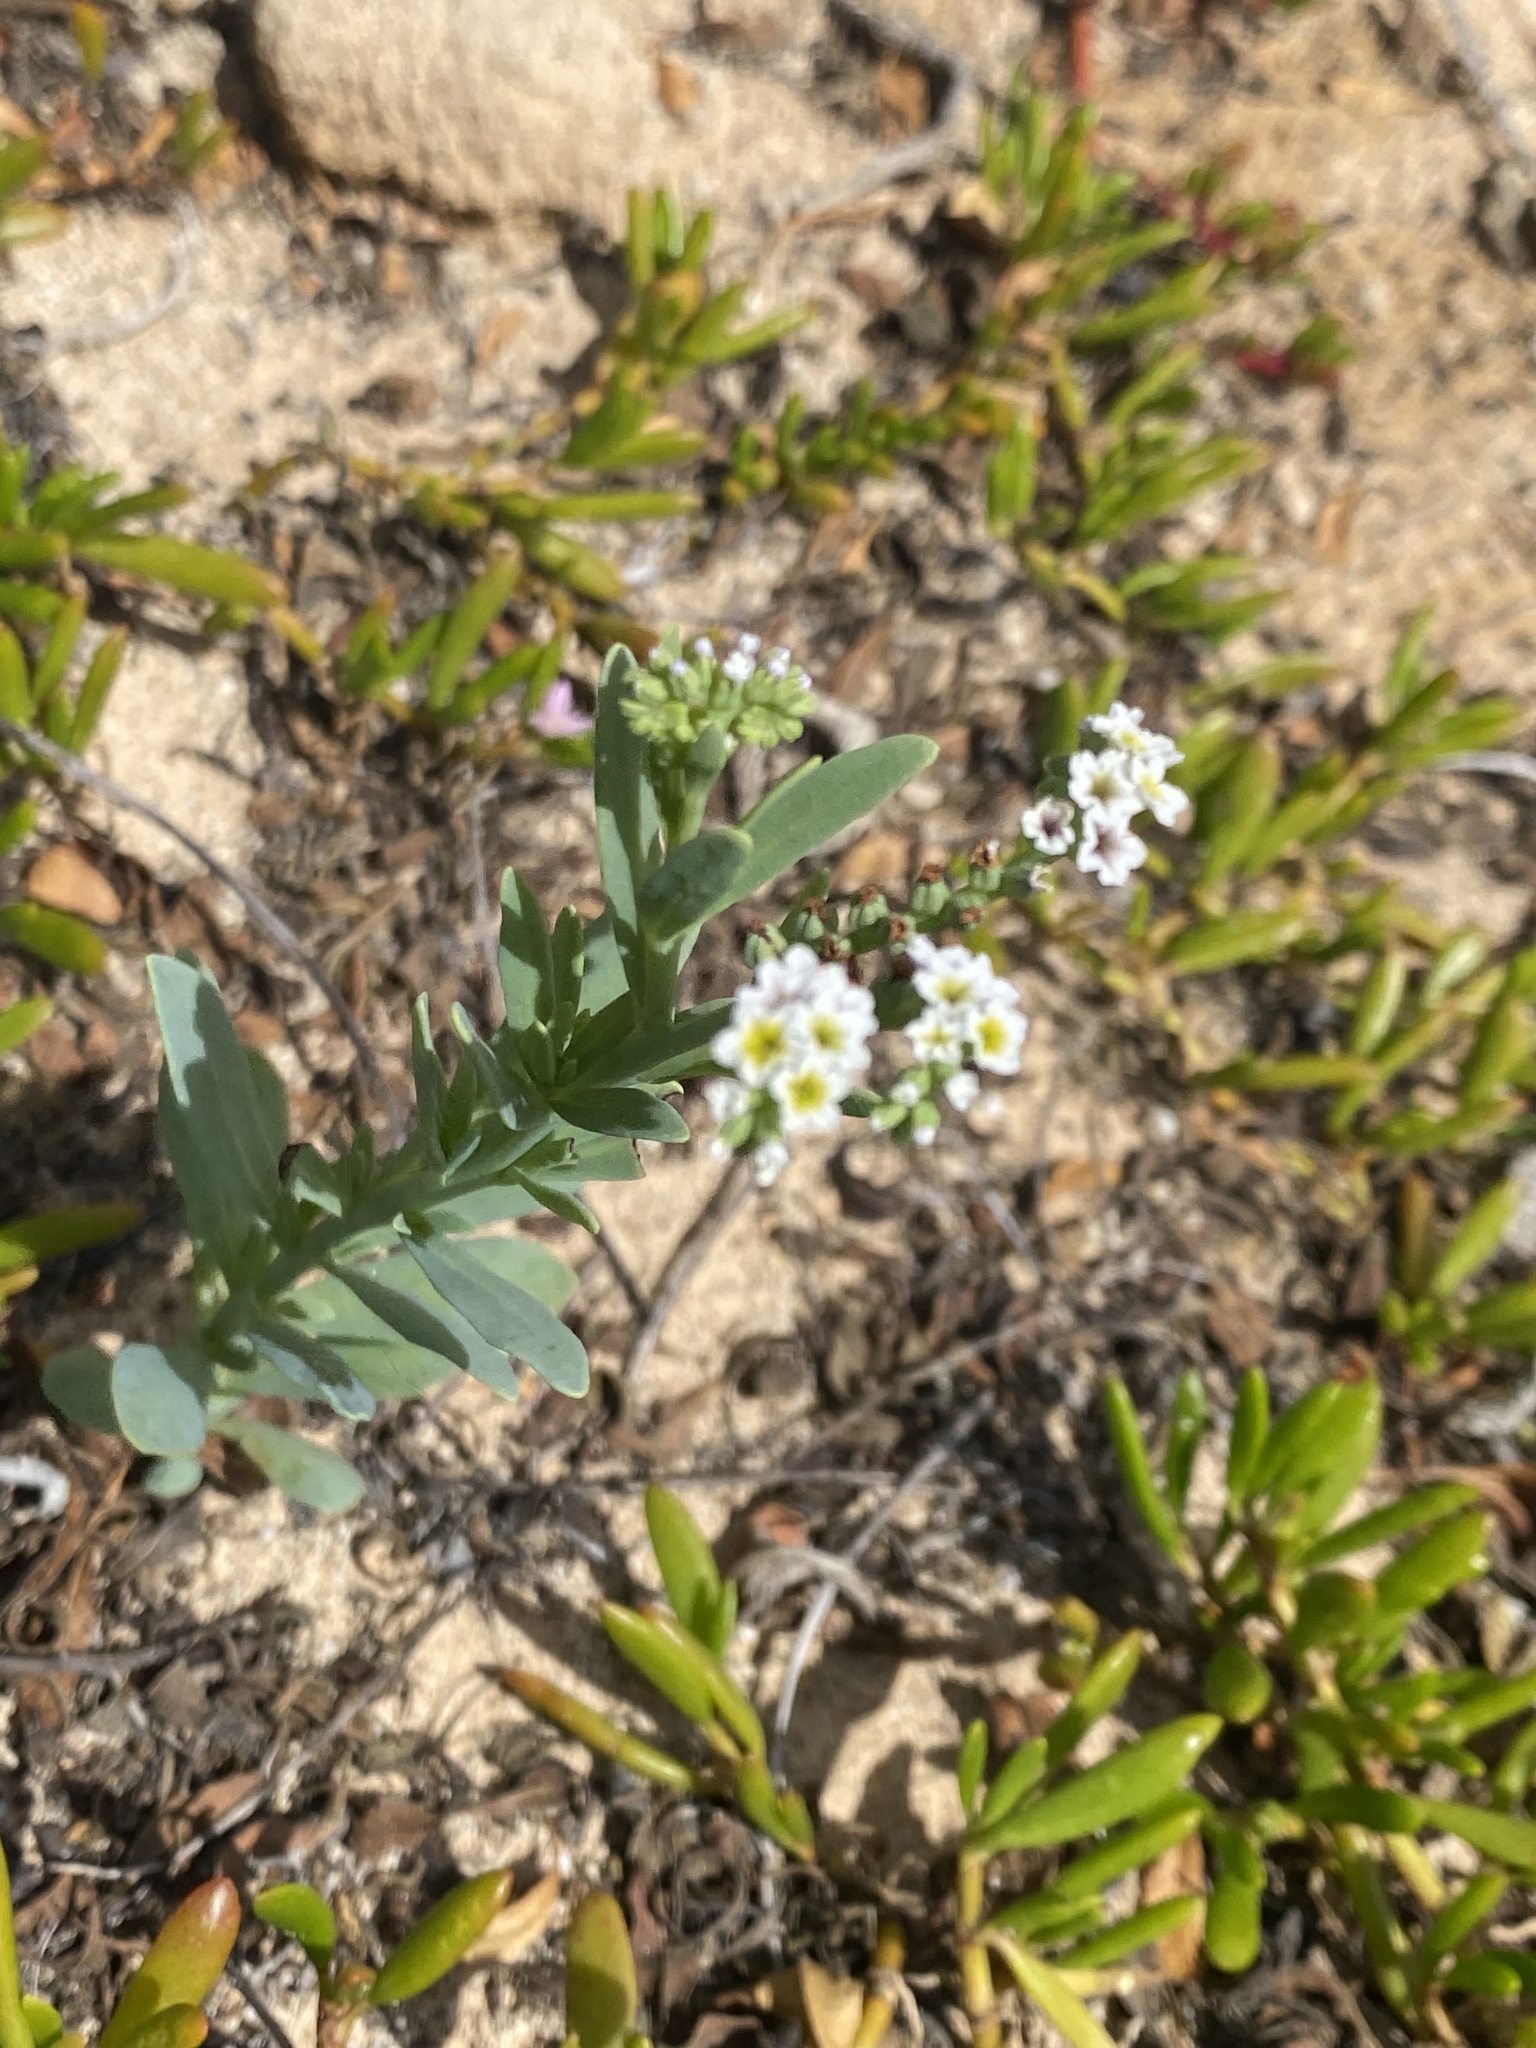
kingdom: Plantae
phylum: Tracheophyta
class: Magnoliopsida
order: Boraginales
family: Heliotropiaceae
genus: Heliotropium
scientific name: Heliotropium curassavicum
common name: Seaside heliotrope
